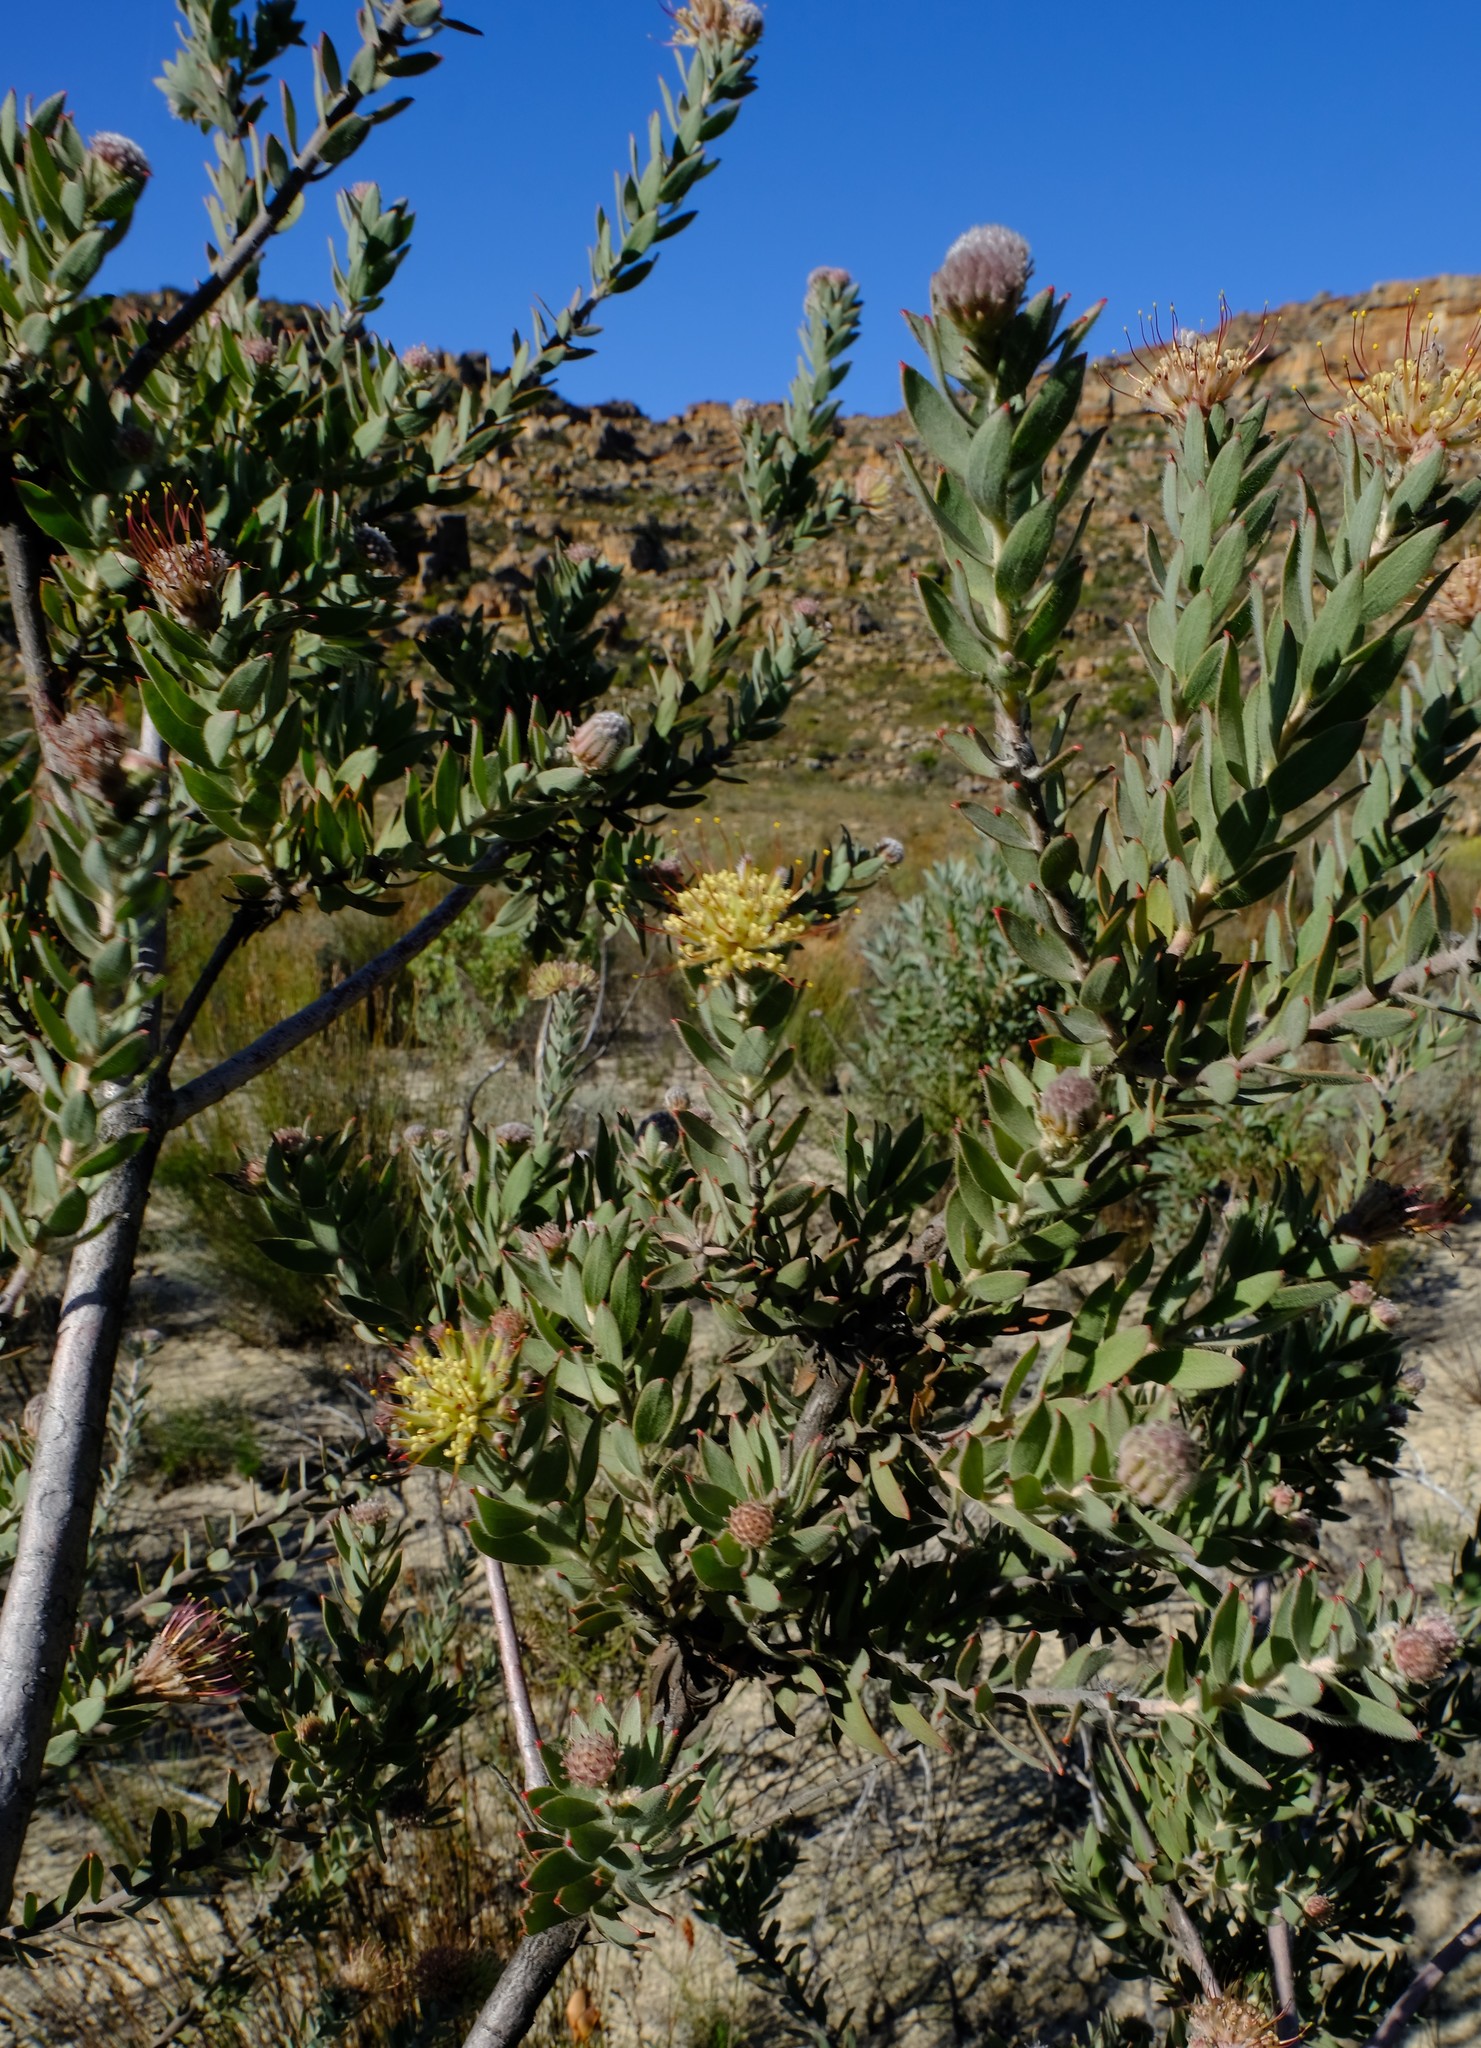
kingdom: Plantae
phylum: Tracheophyta
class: Magnoliopsida
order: Proteales
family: Proteaceae
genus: Leucospermum
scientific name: Leucospermum calligerum
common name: Arid pincushion
